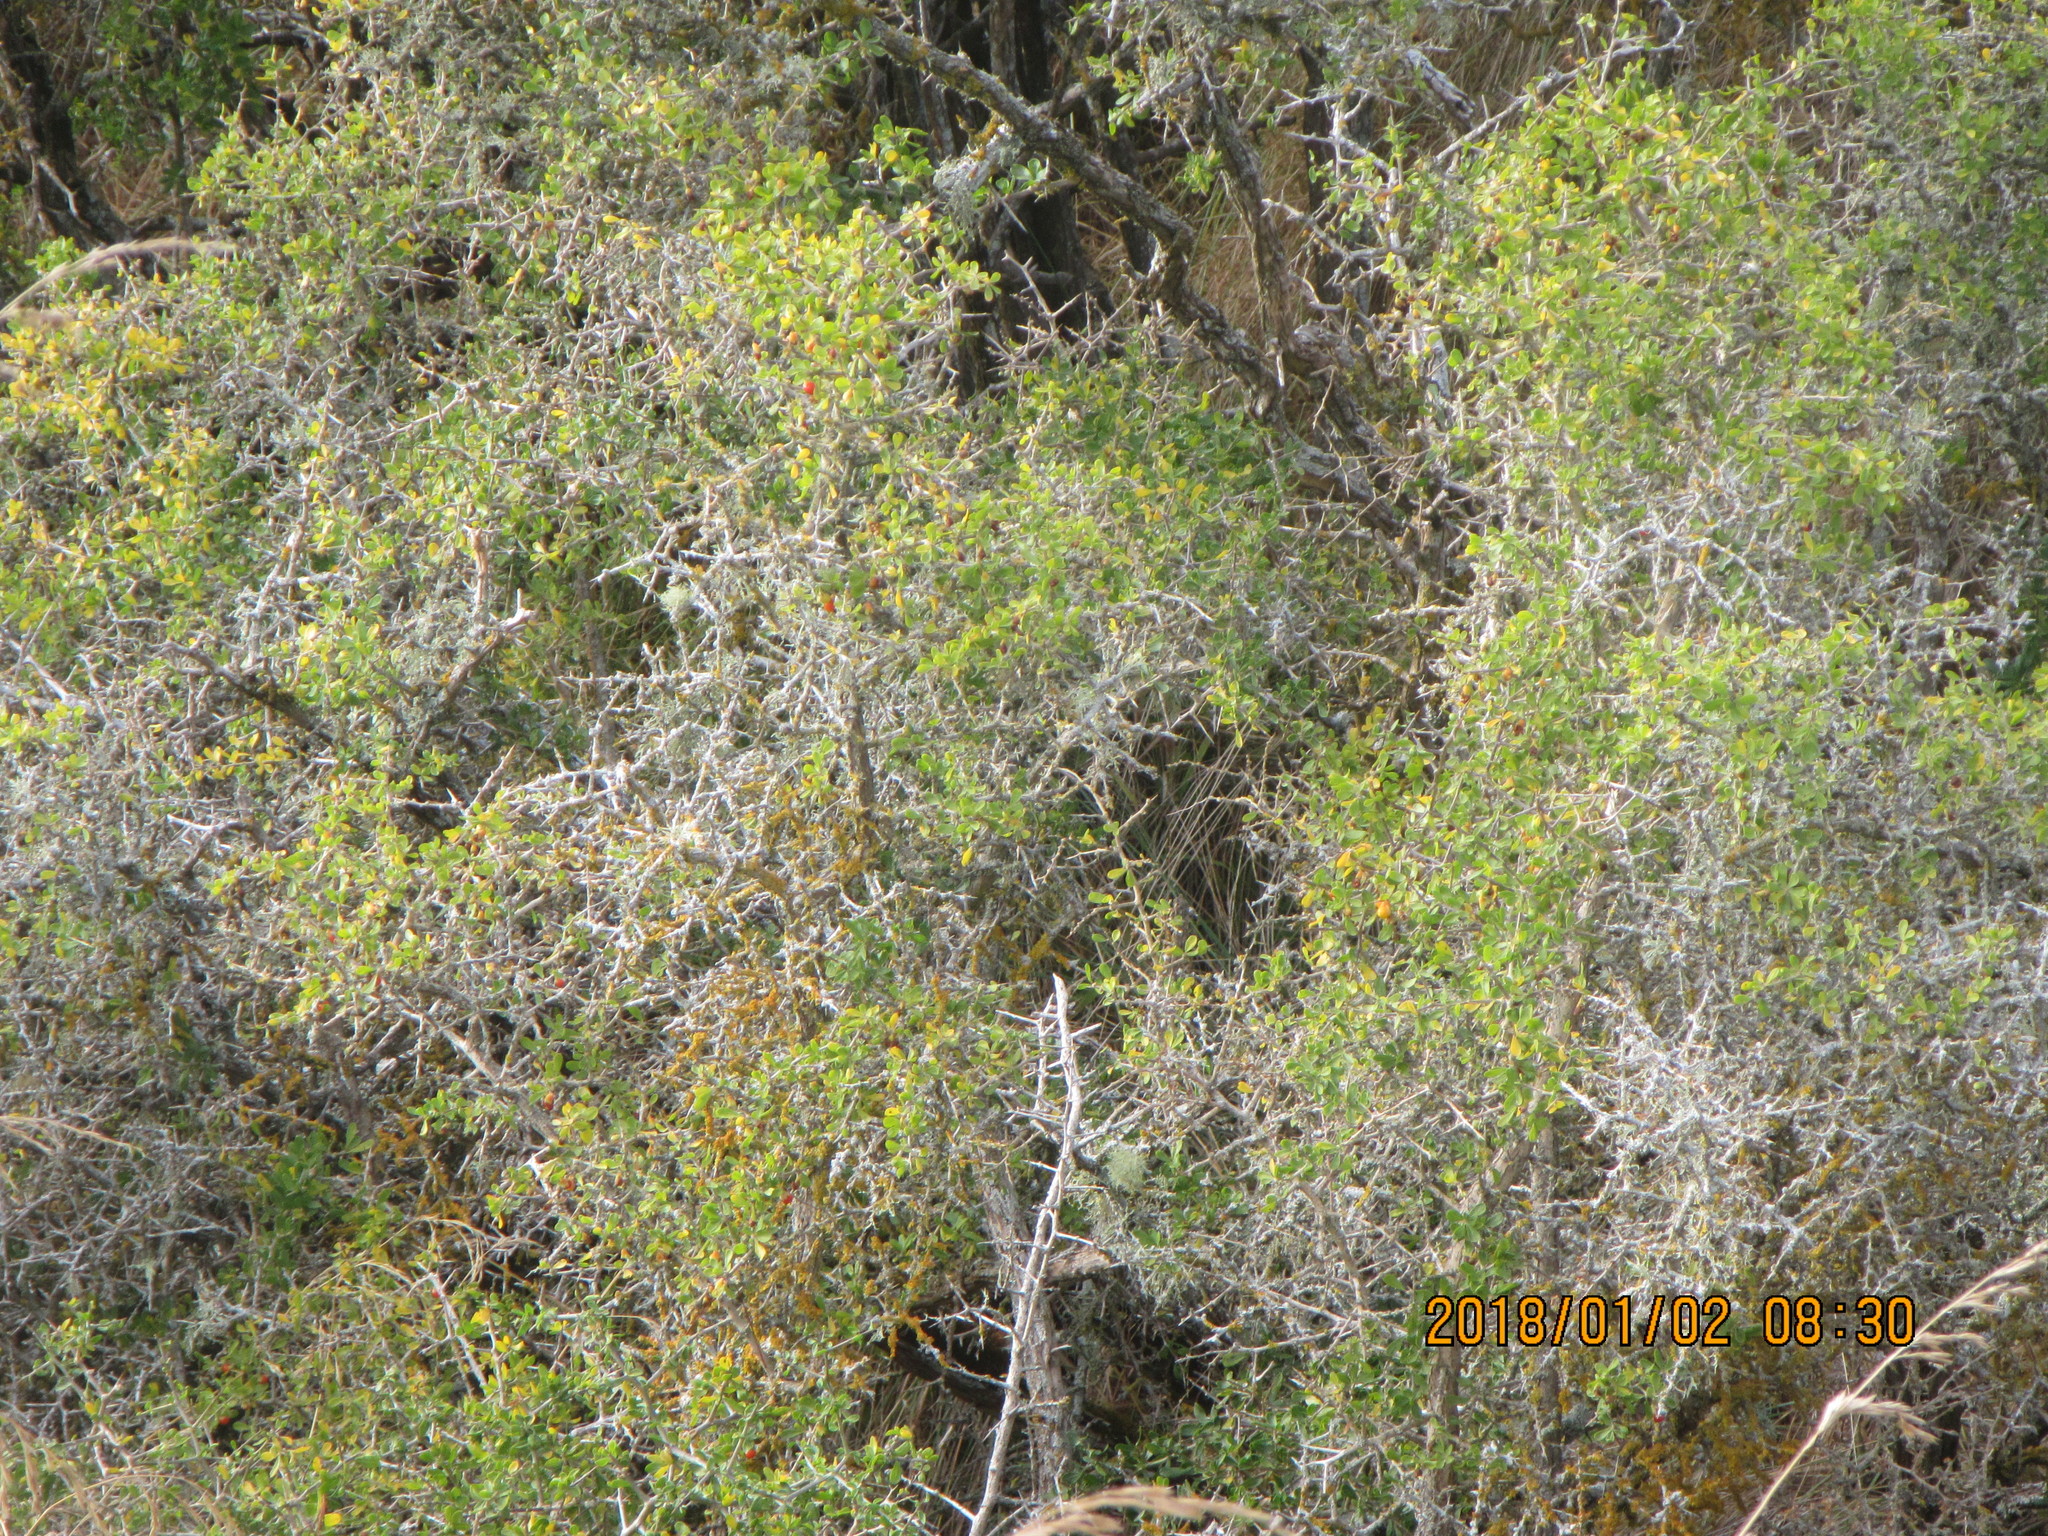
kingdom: Plantae
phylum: Tracheophyta
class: Magnoliopsida
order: Solanales
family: Solanaceae
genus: Lycium
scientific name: Lycium ferocissimum
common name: African boxthorn
